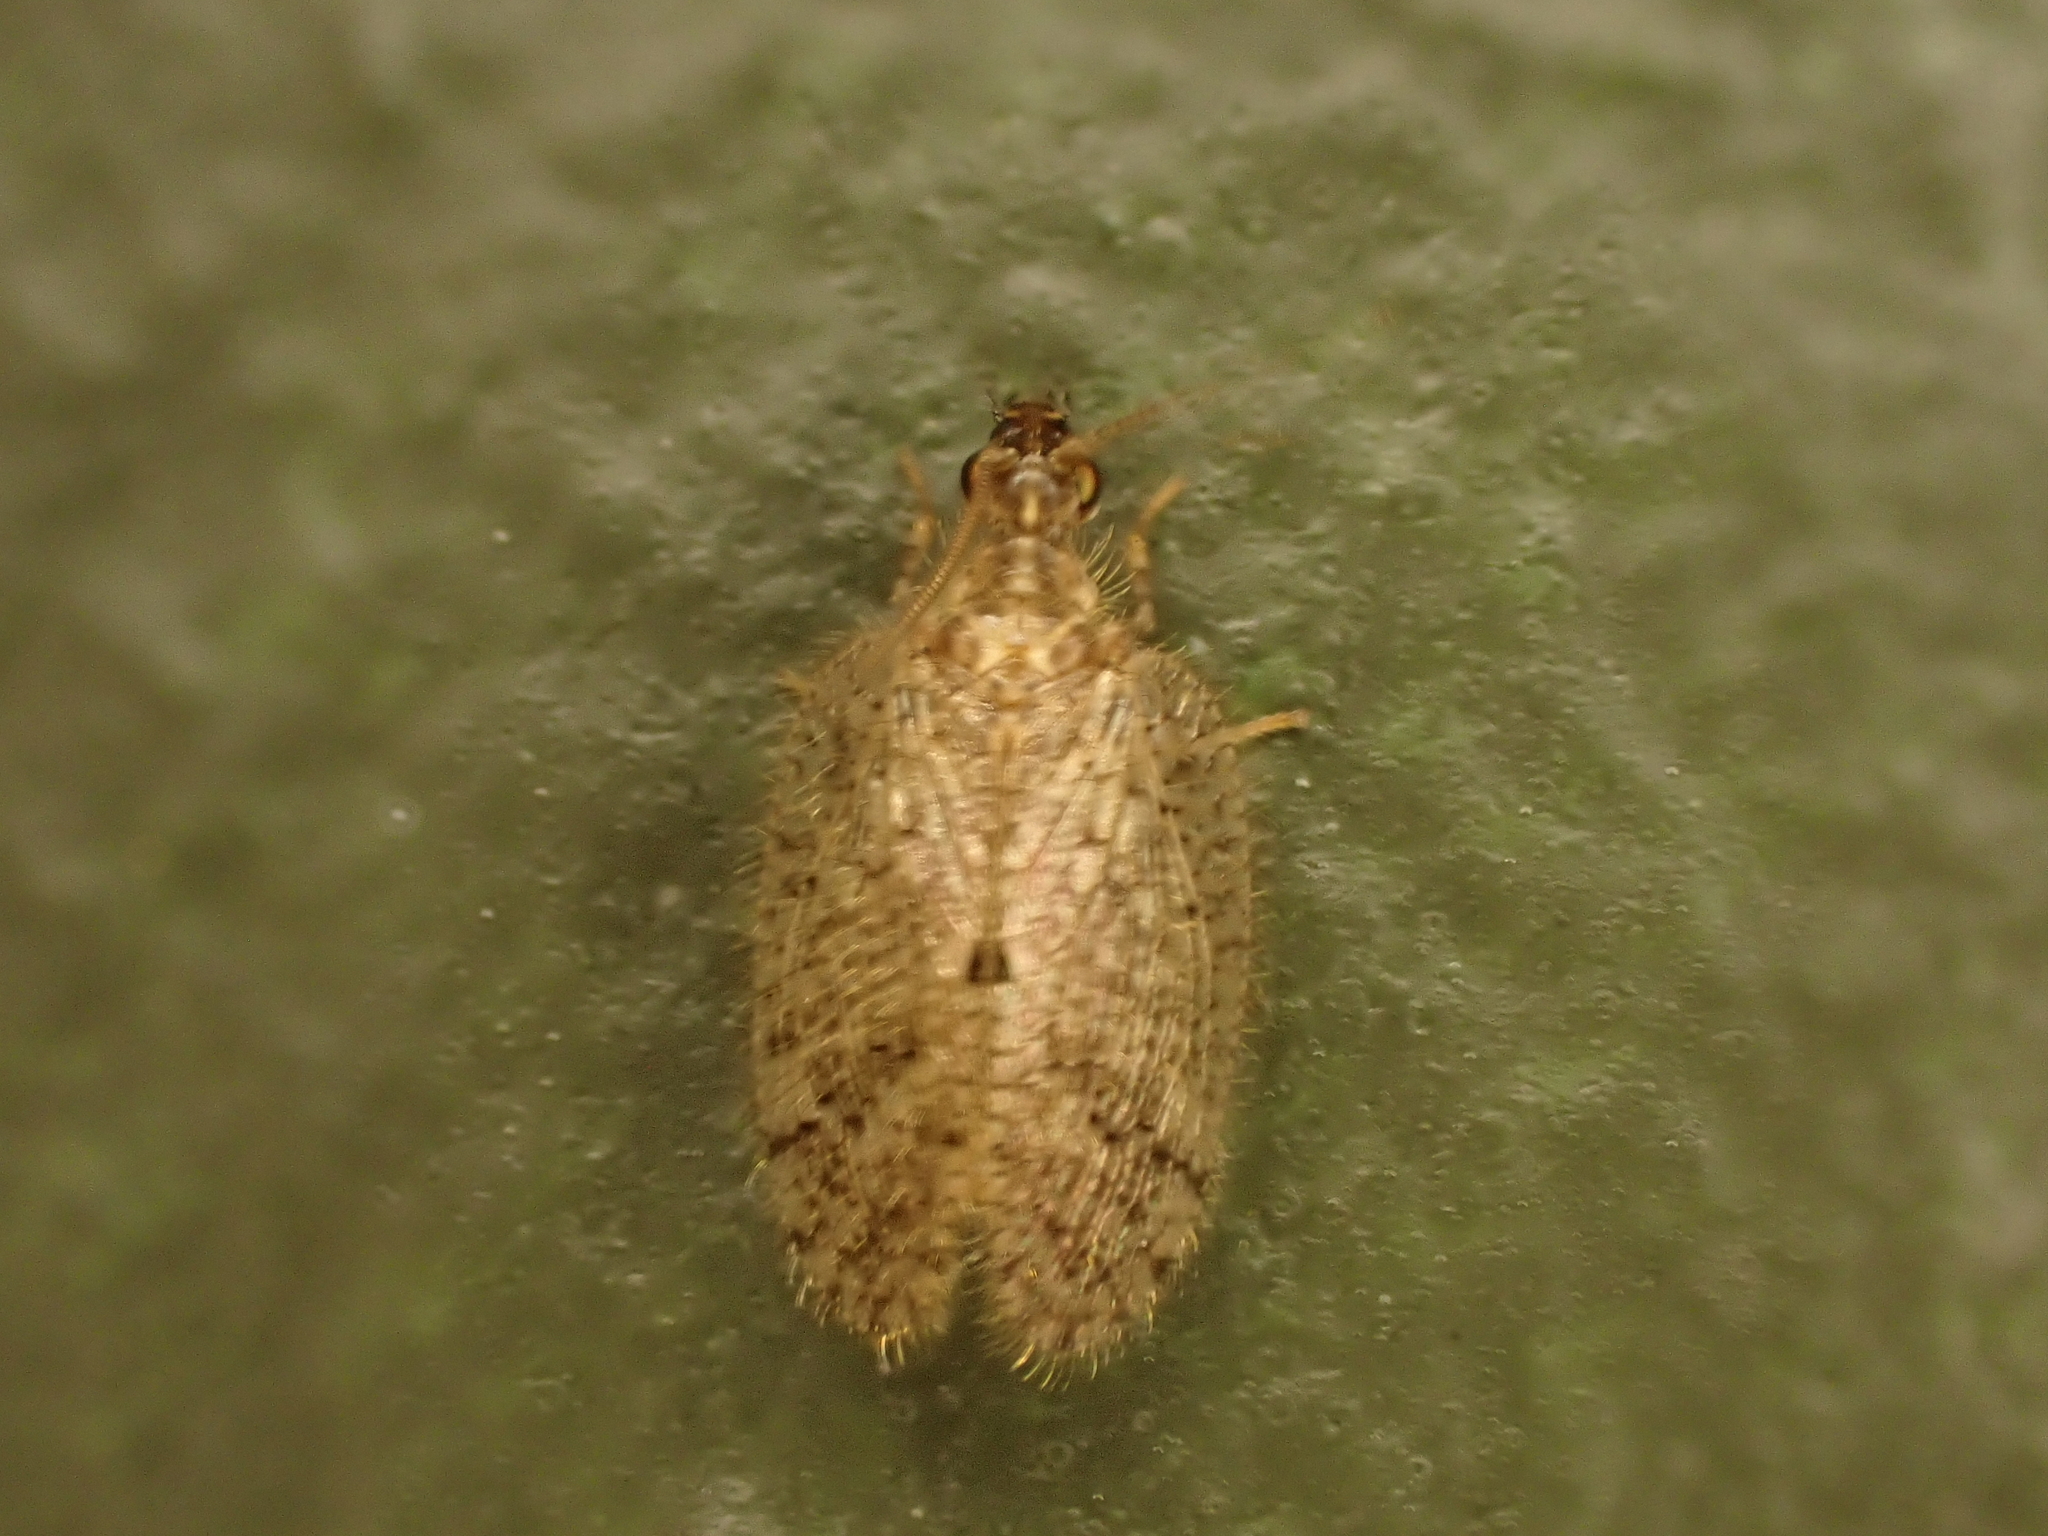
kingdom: Animalia
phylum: Arthropoda
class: Insecta
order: Neuroptera
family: Hemerobiidae
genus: Psectra
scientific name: Psectra nakaharai
